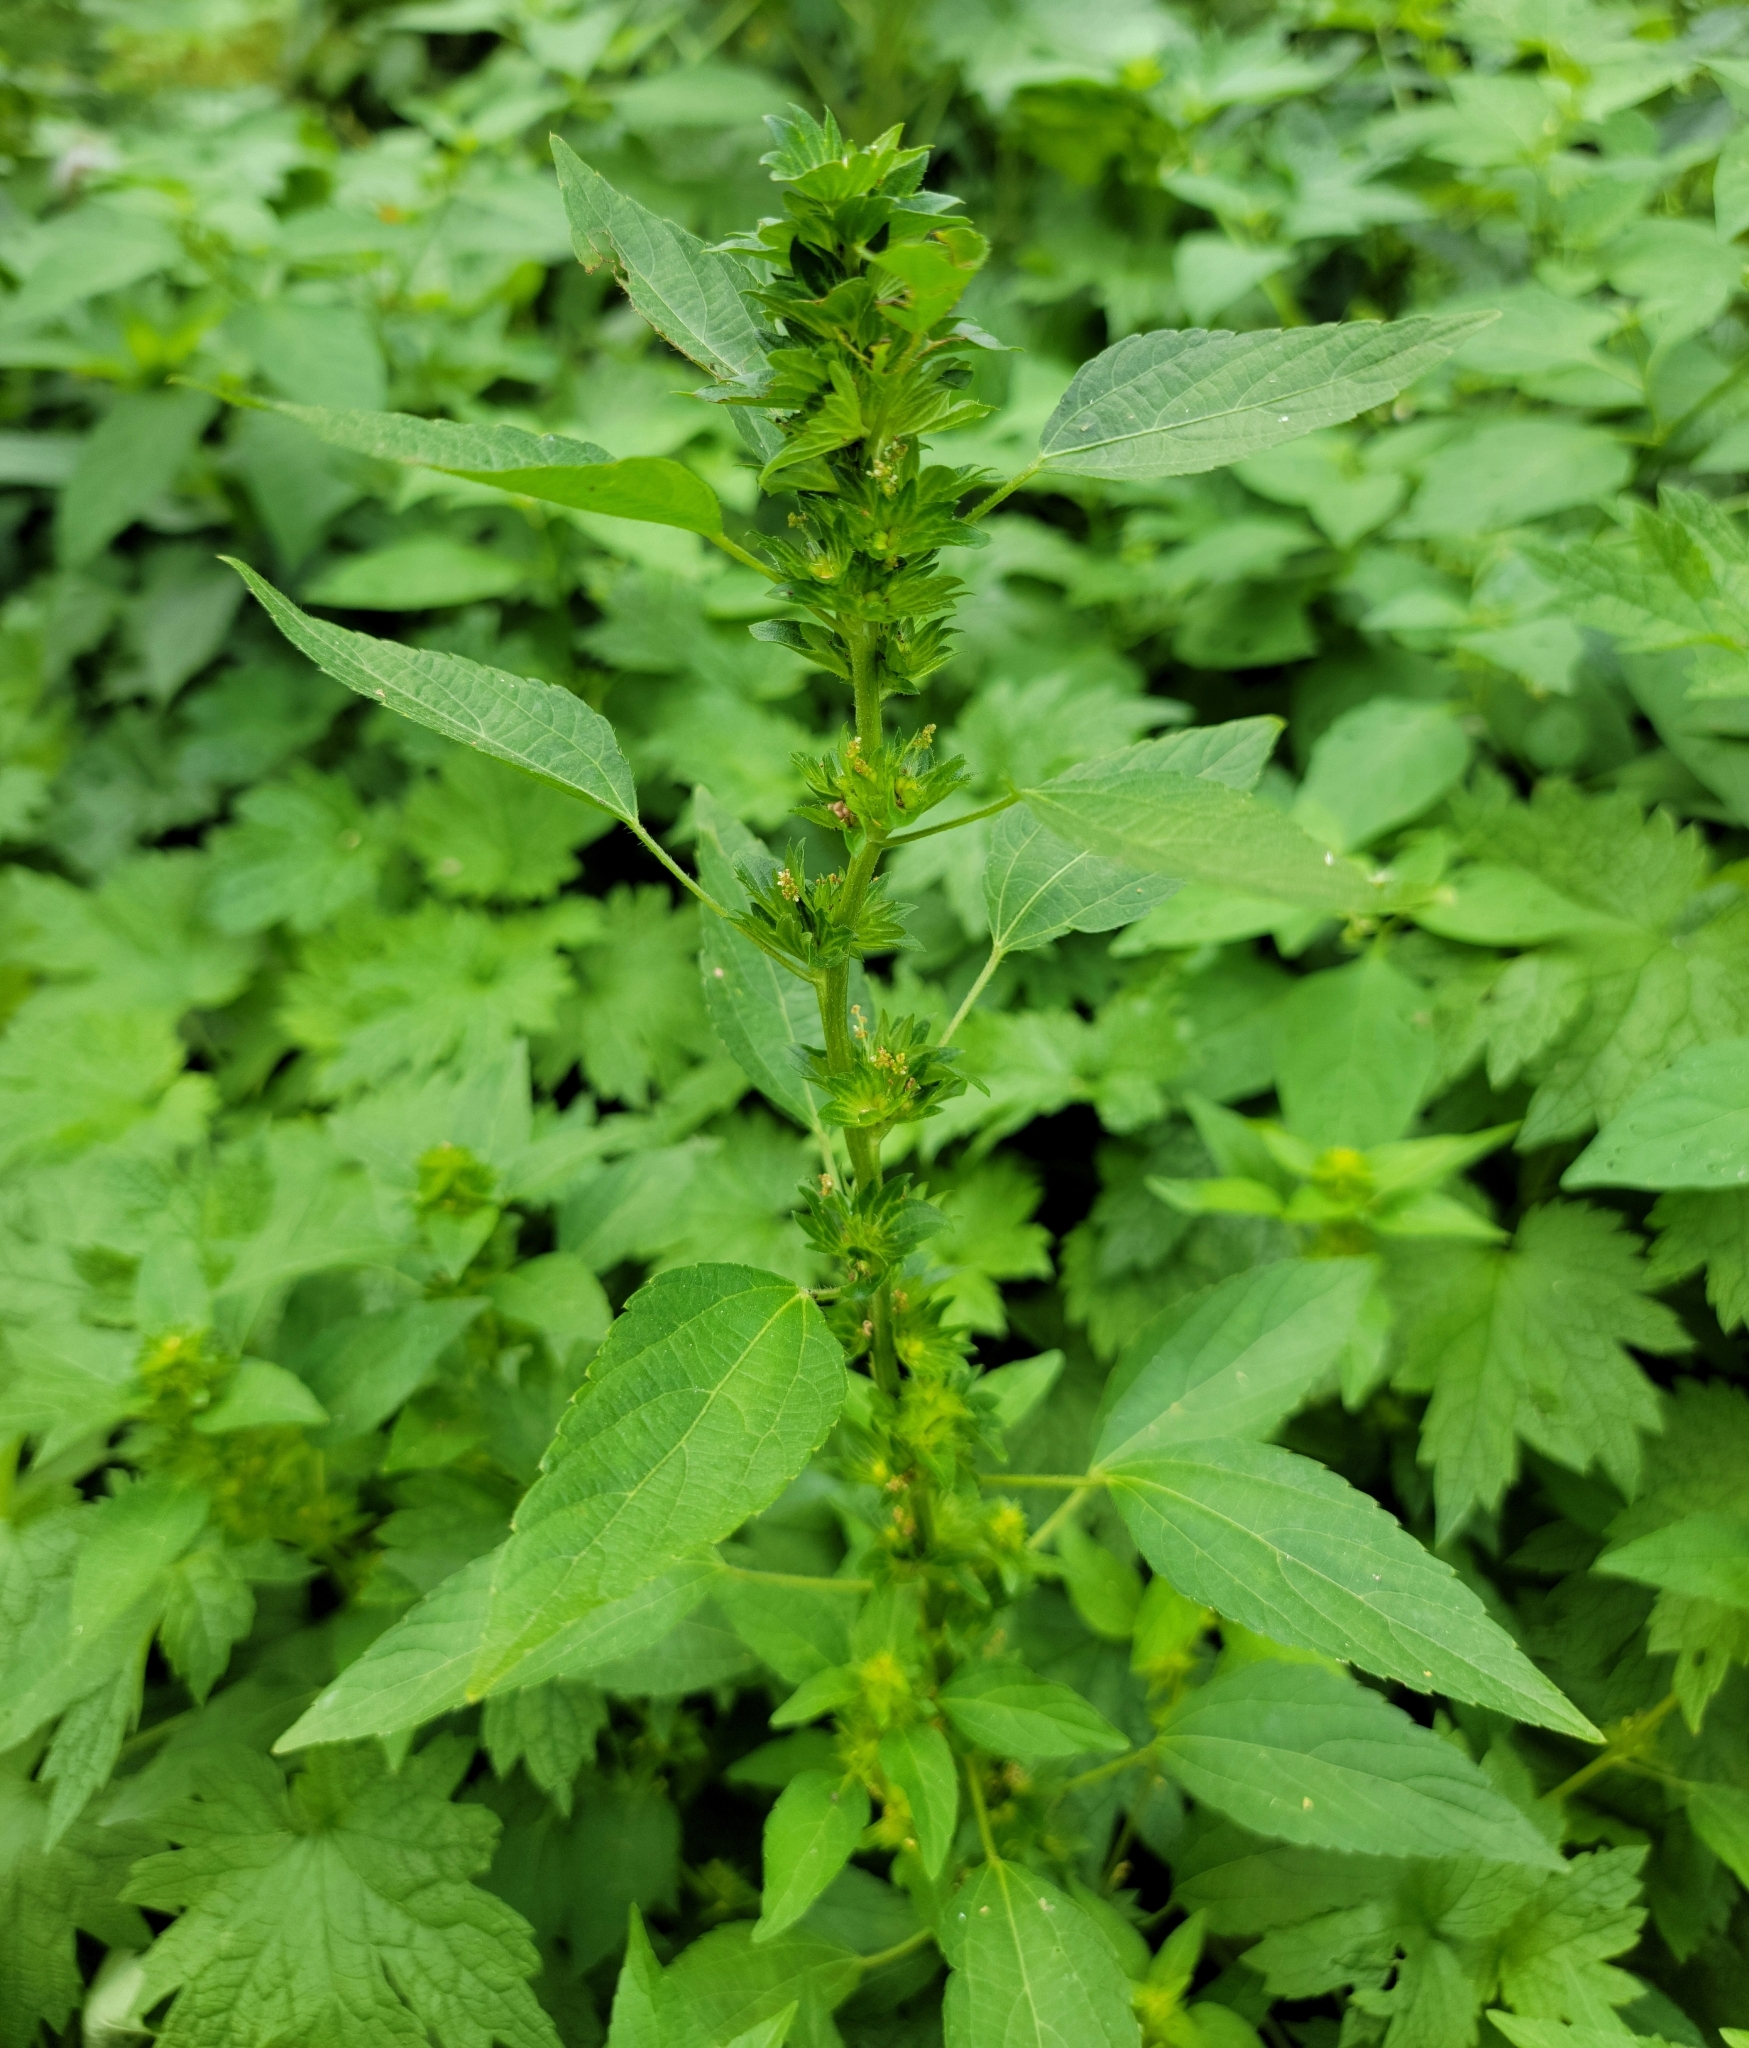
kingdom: Plantae
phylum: Tracheophyta
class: Magnoliopsida
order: Malpighiales
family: Euphorbiaceae
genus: Acalypha
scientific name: Acalypha rhomboidea
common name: Rhombic copperleaf
